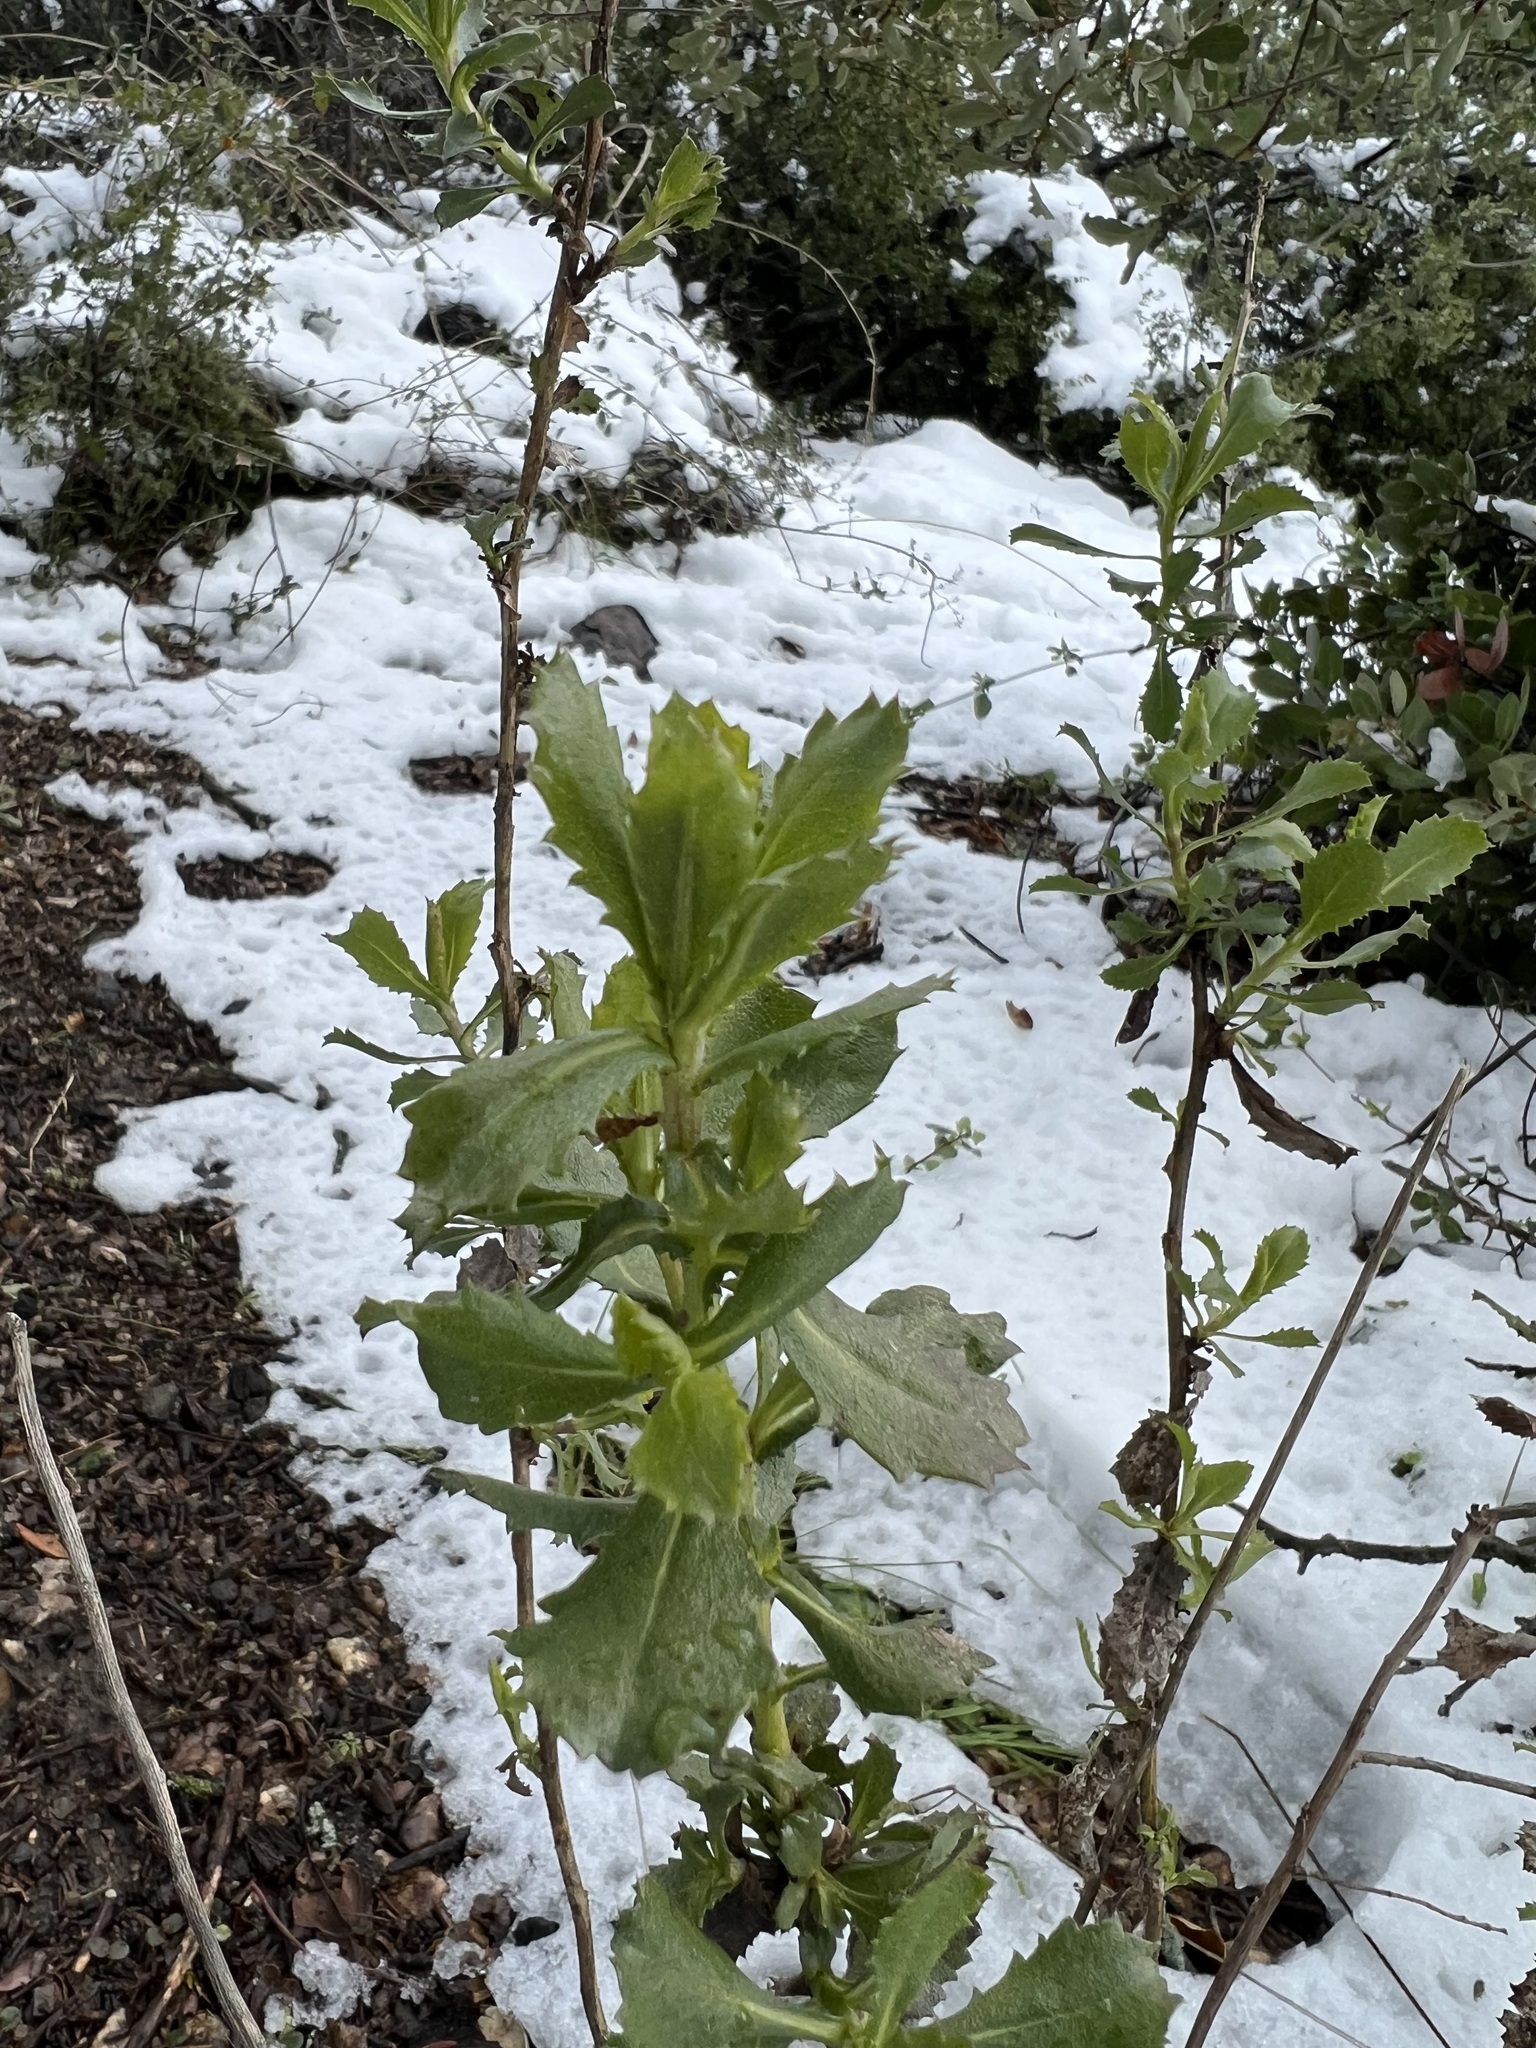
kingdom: Plantae
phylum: Tracheophyta
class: Magnoliopsida
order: Asterales
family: Asteraceae
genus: Hazardia
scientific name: Hazardia squarrosa
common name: Saw-tooth goldenbush
